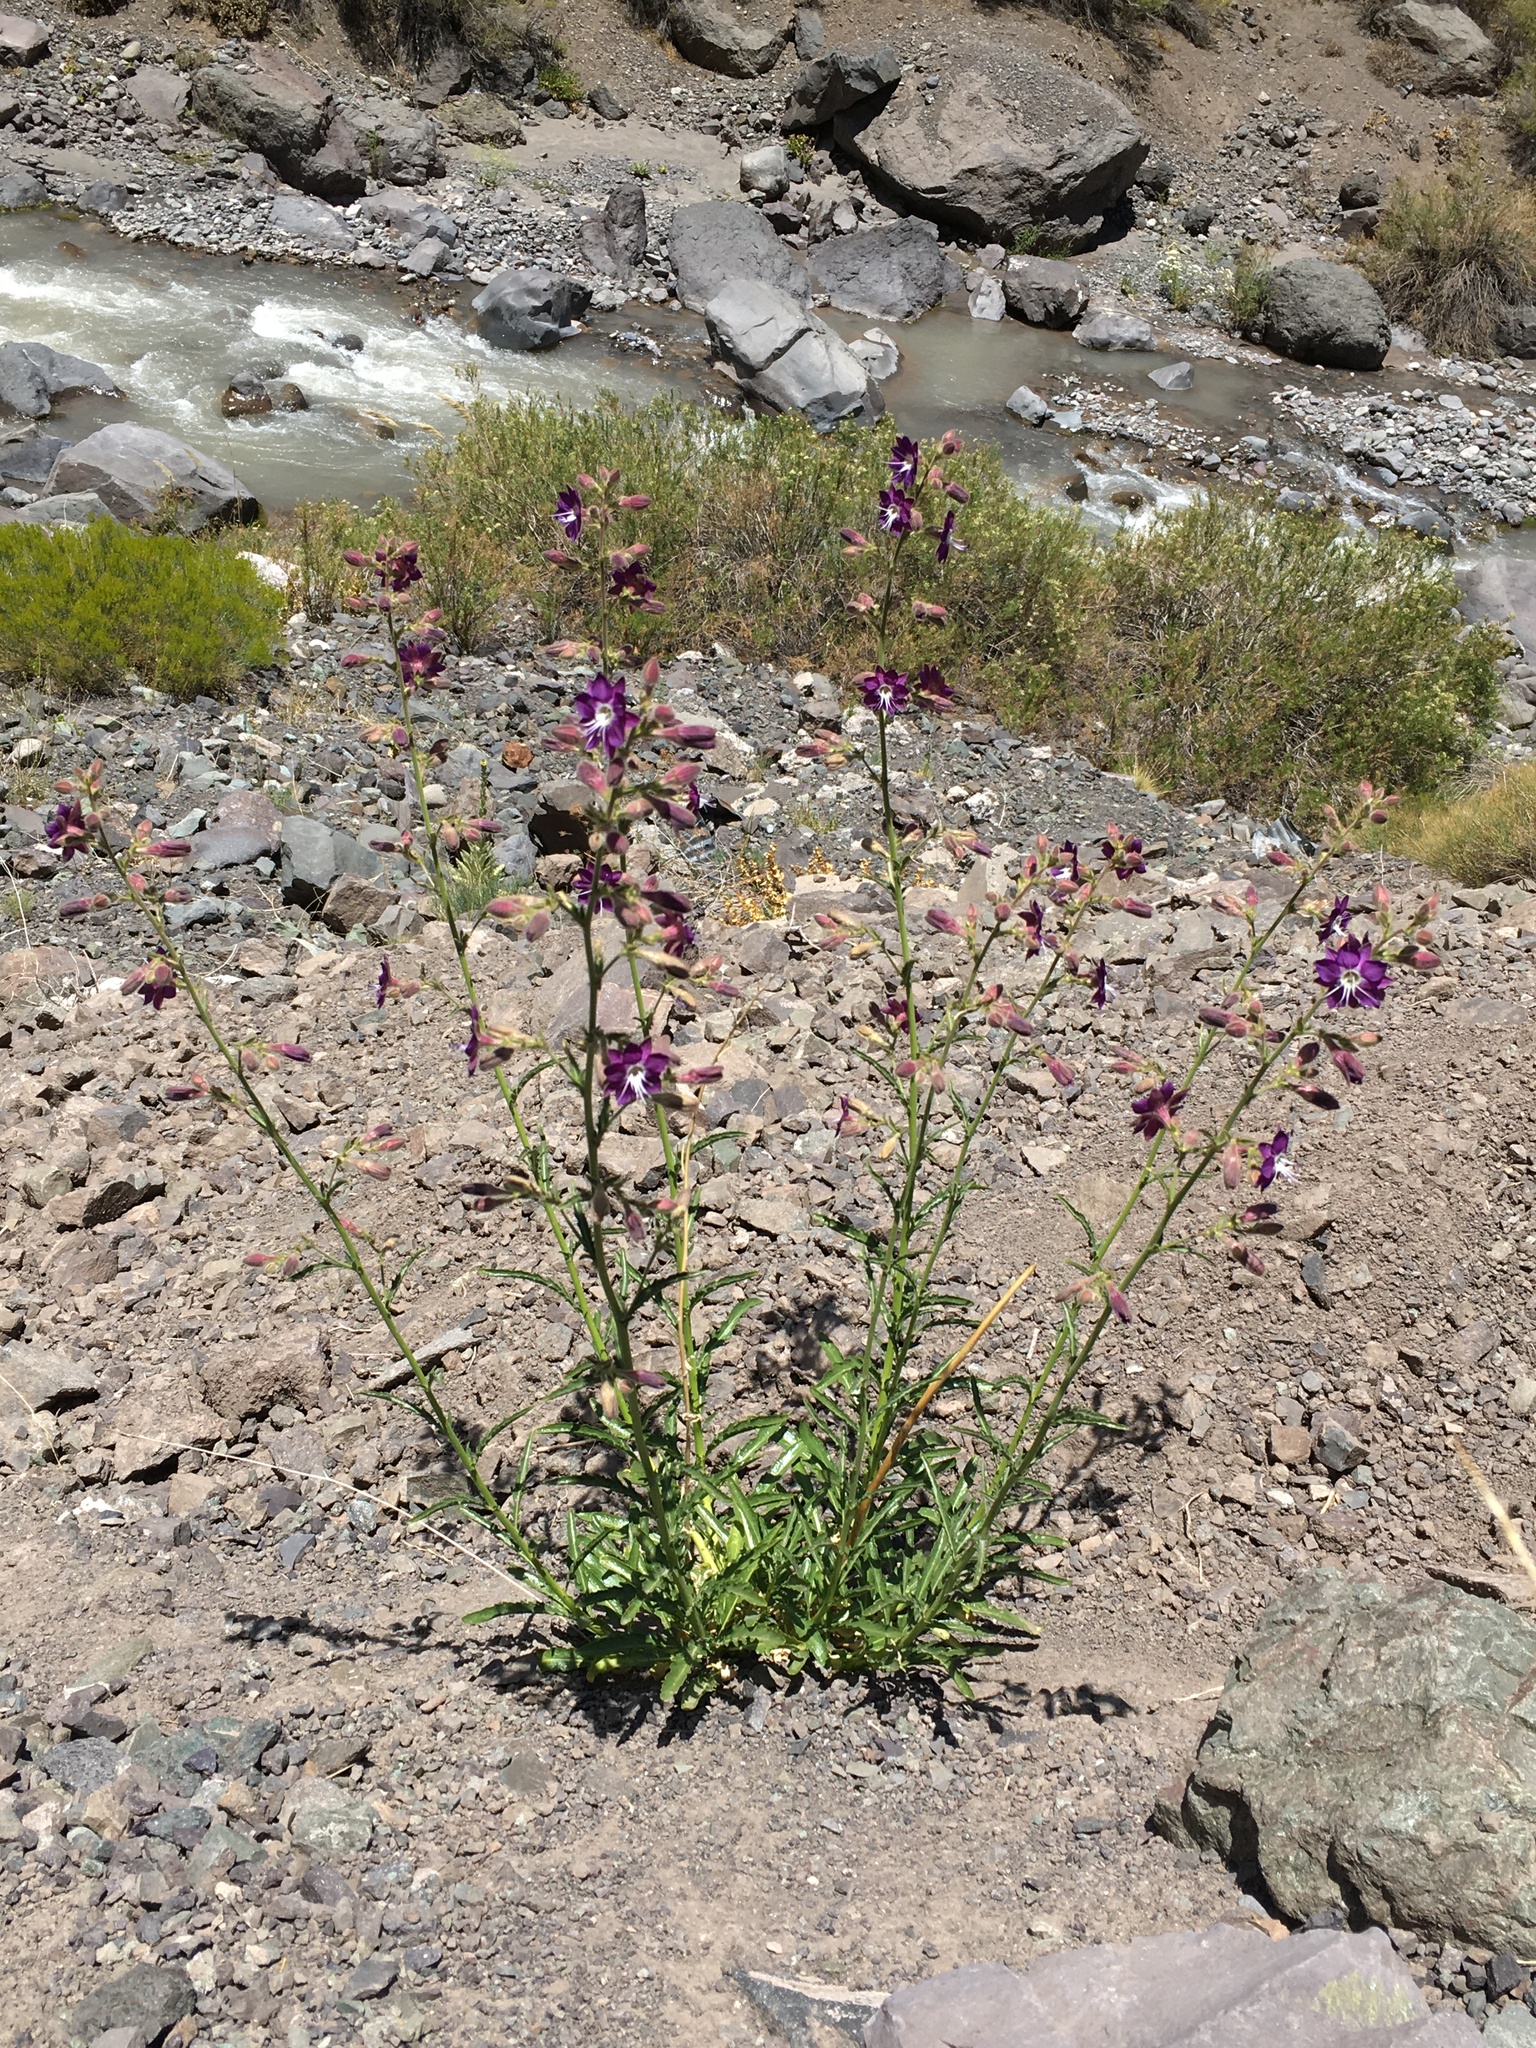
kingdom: Plantae
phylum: Tracheophyta
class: Magnoliopsida
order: Malpighiales
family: Malesherbiaceae
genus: Malesherbia
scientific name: Malesherbia linearifolia
